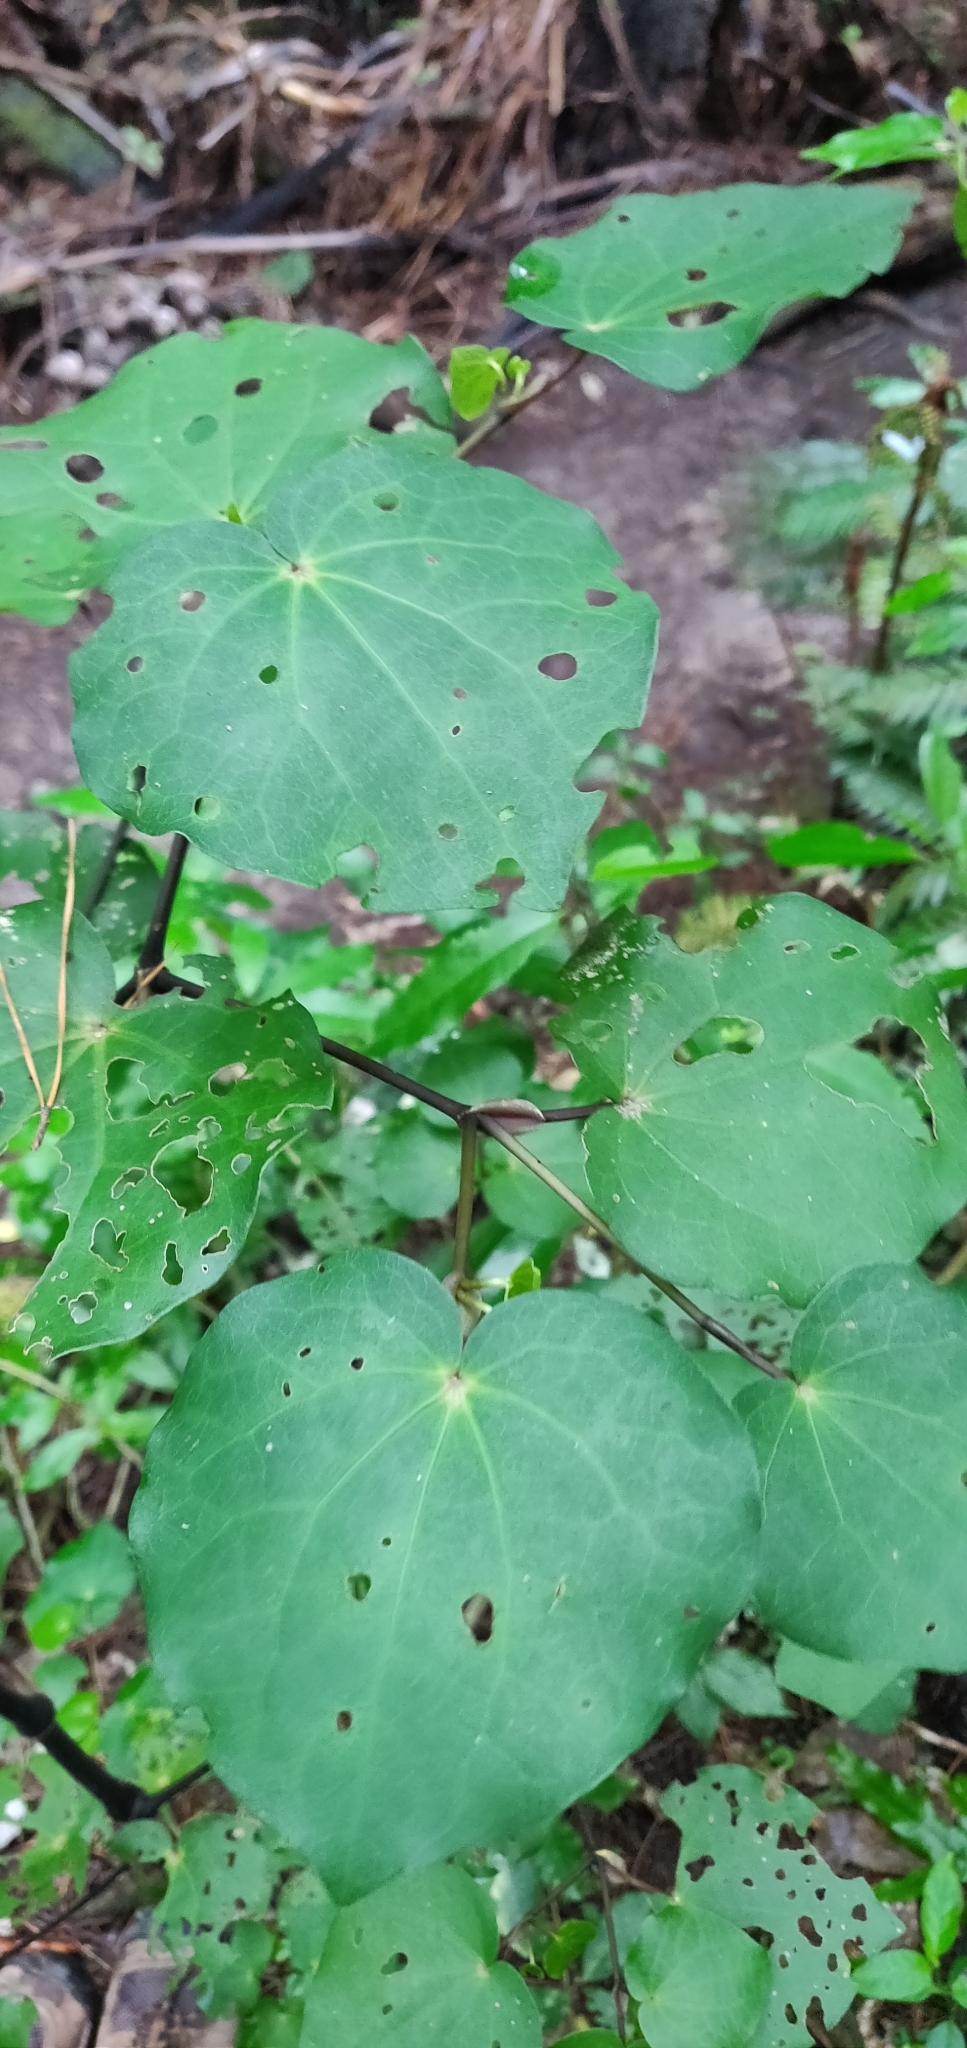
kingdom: Plantae
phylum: Tracheophyta
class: Magnoliopsida
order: Piperales
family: Piperaceae
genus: Macropiper
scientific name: Macropiper excelsum
